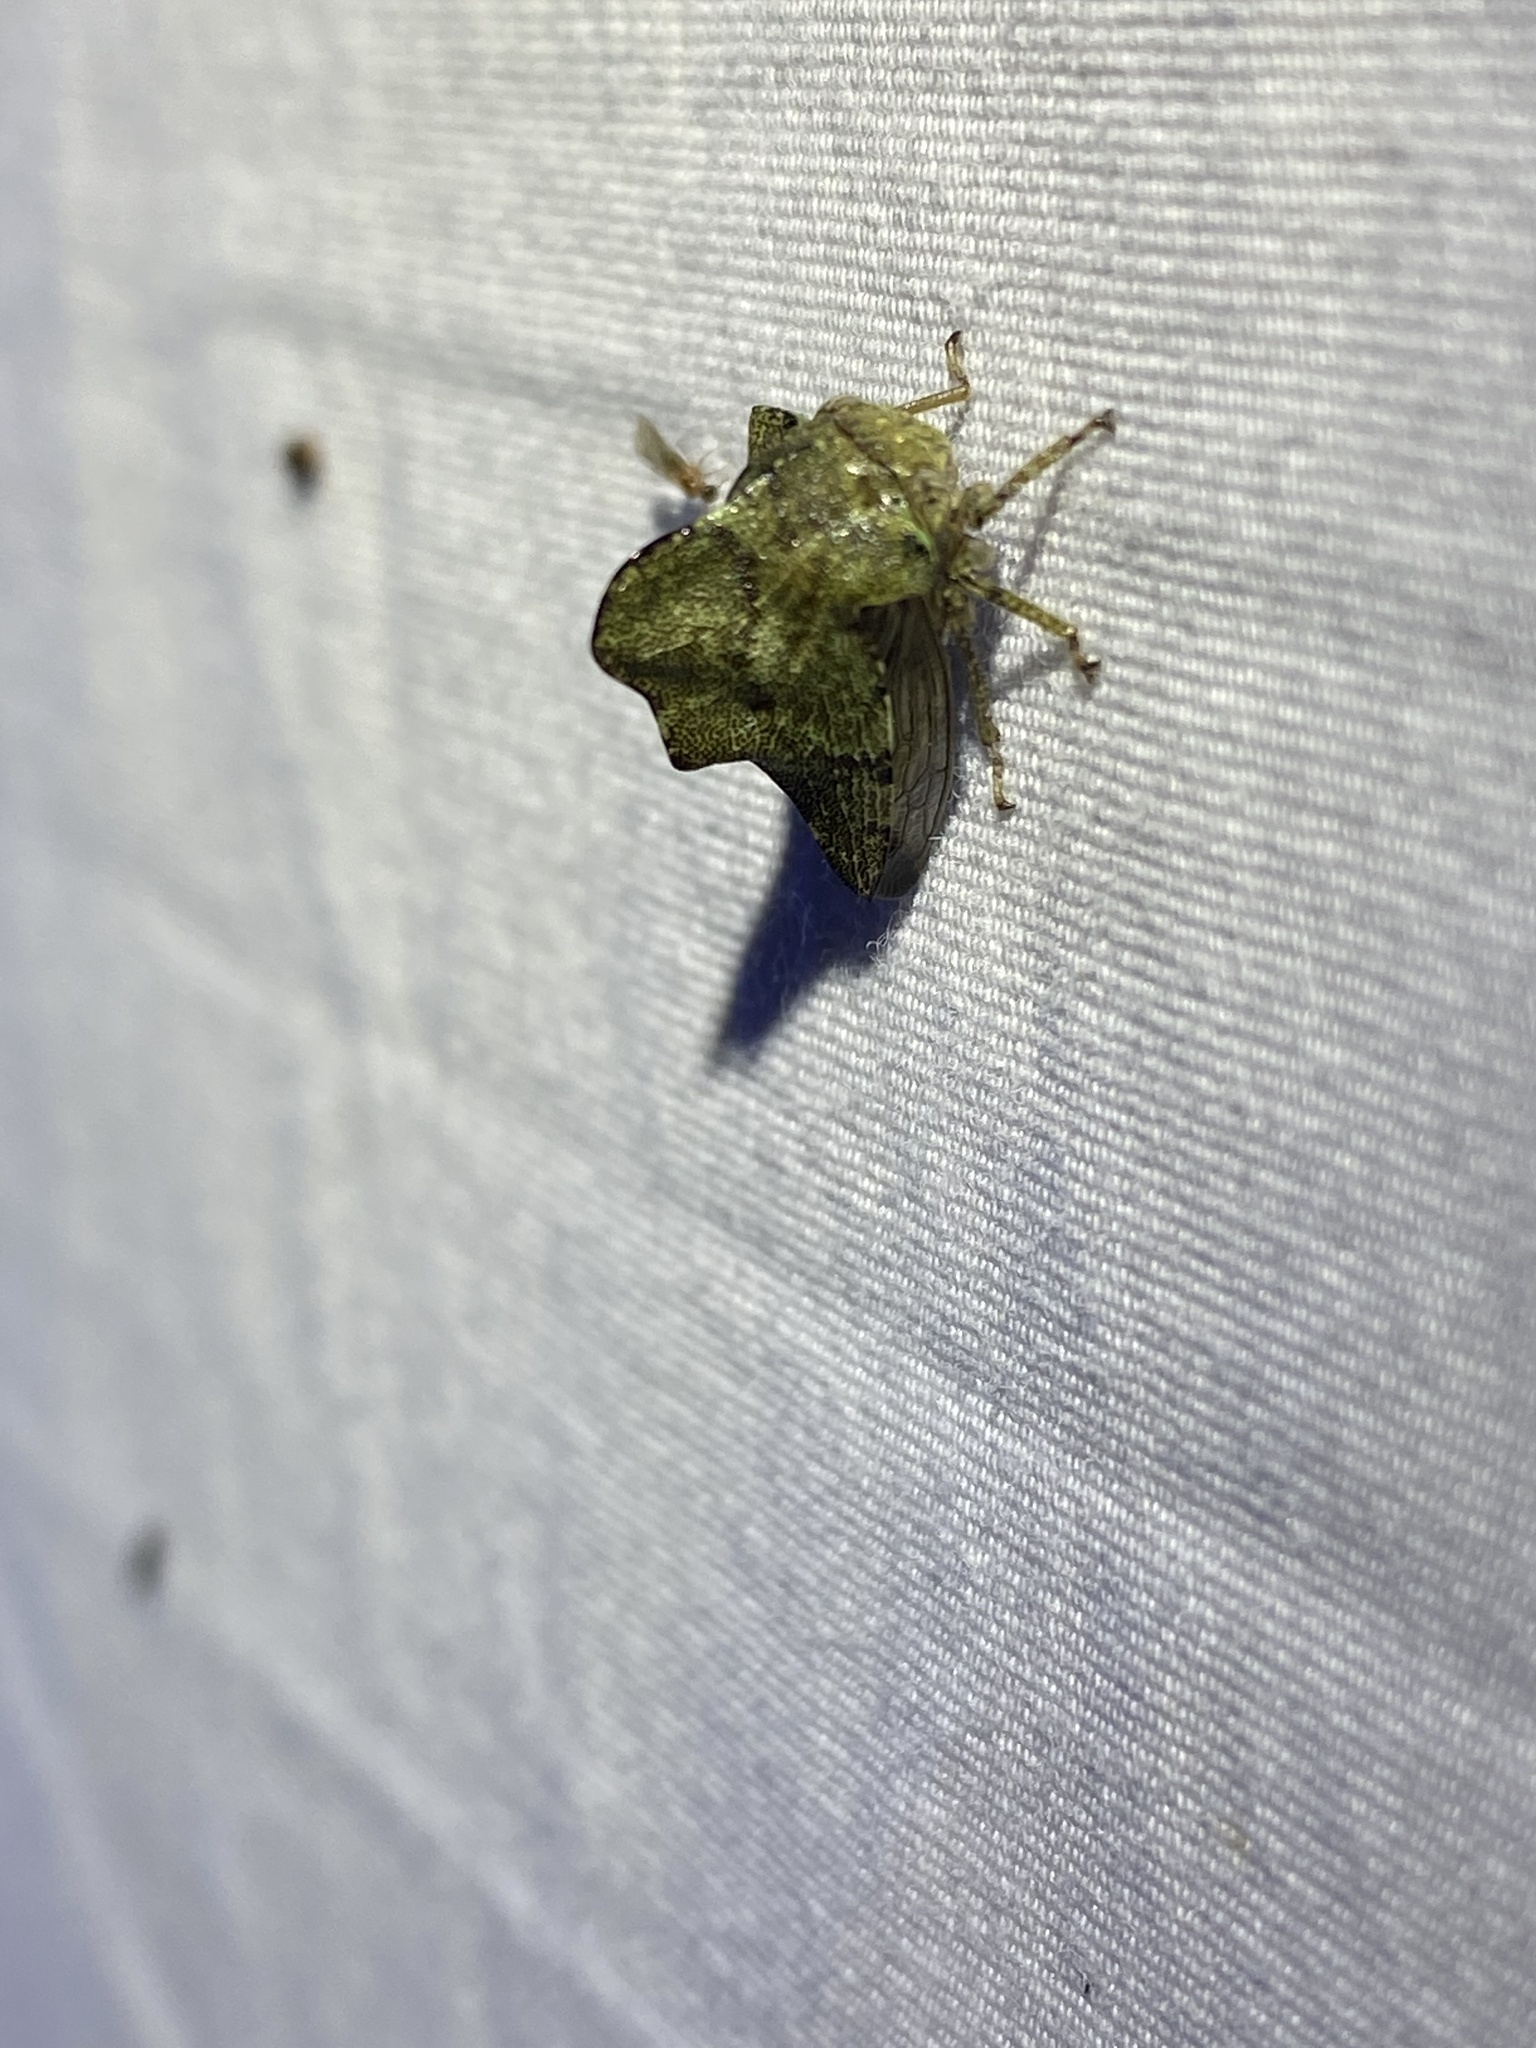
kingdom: Animalia
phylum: Arthropoda
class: Insecta
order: Hemiptera
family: Membracidae
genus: Heliria
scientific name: Heliria cornutula
